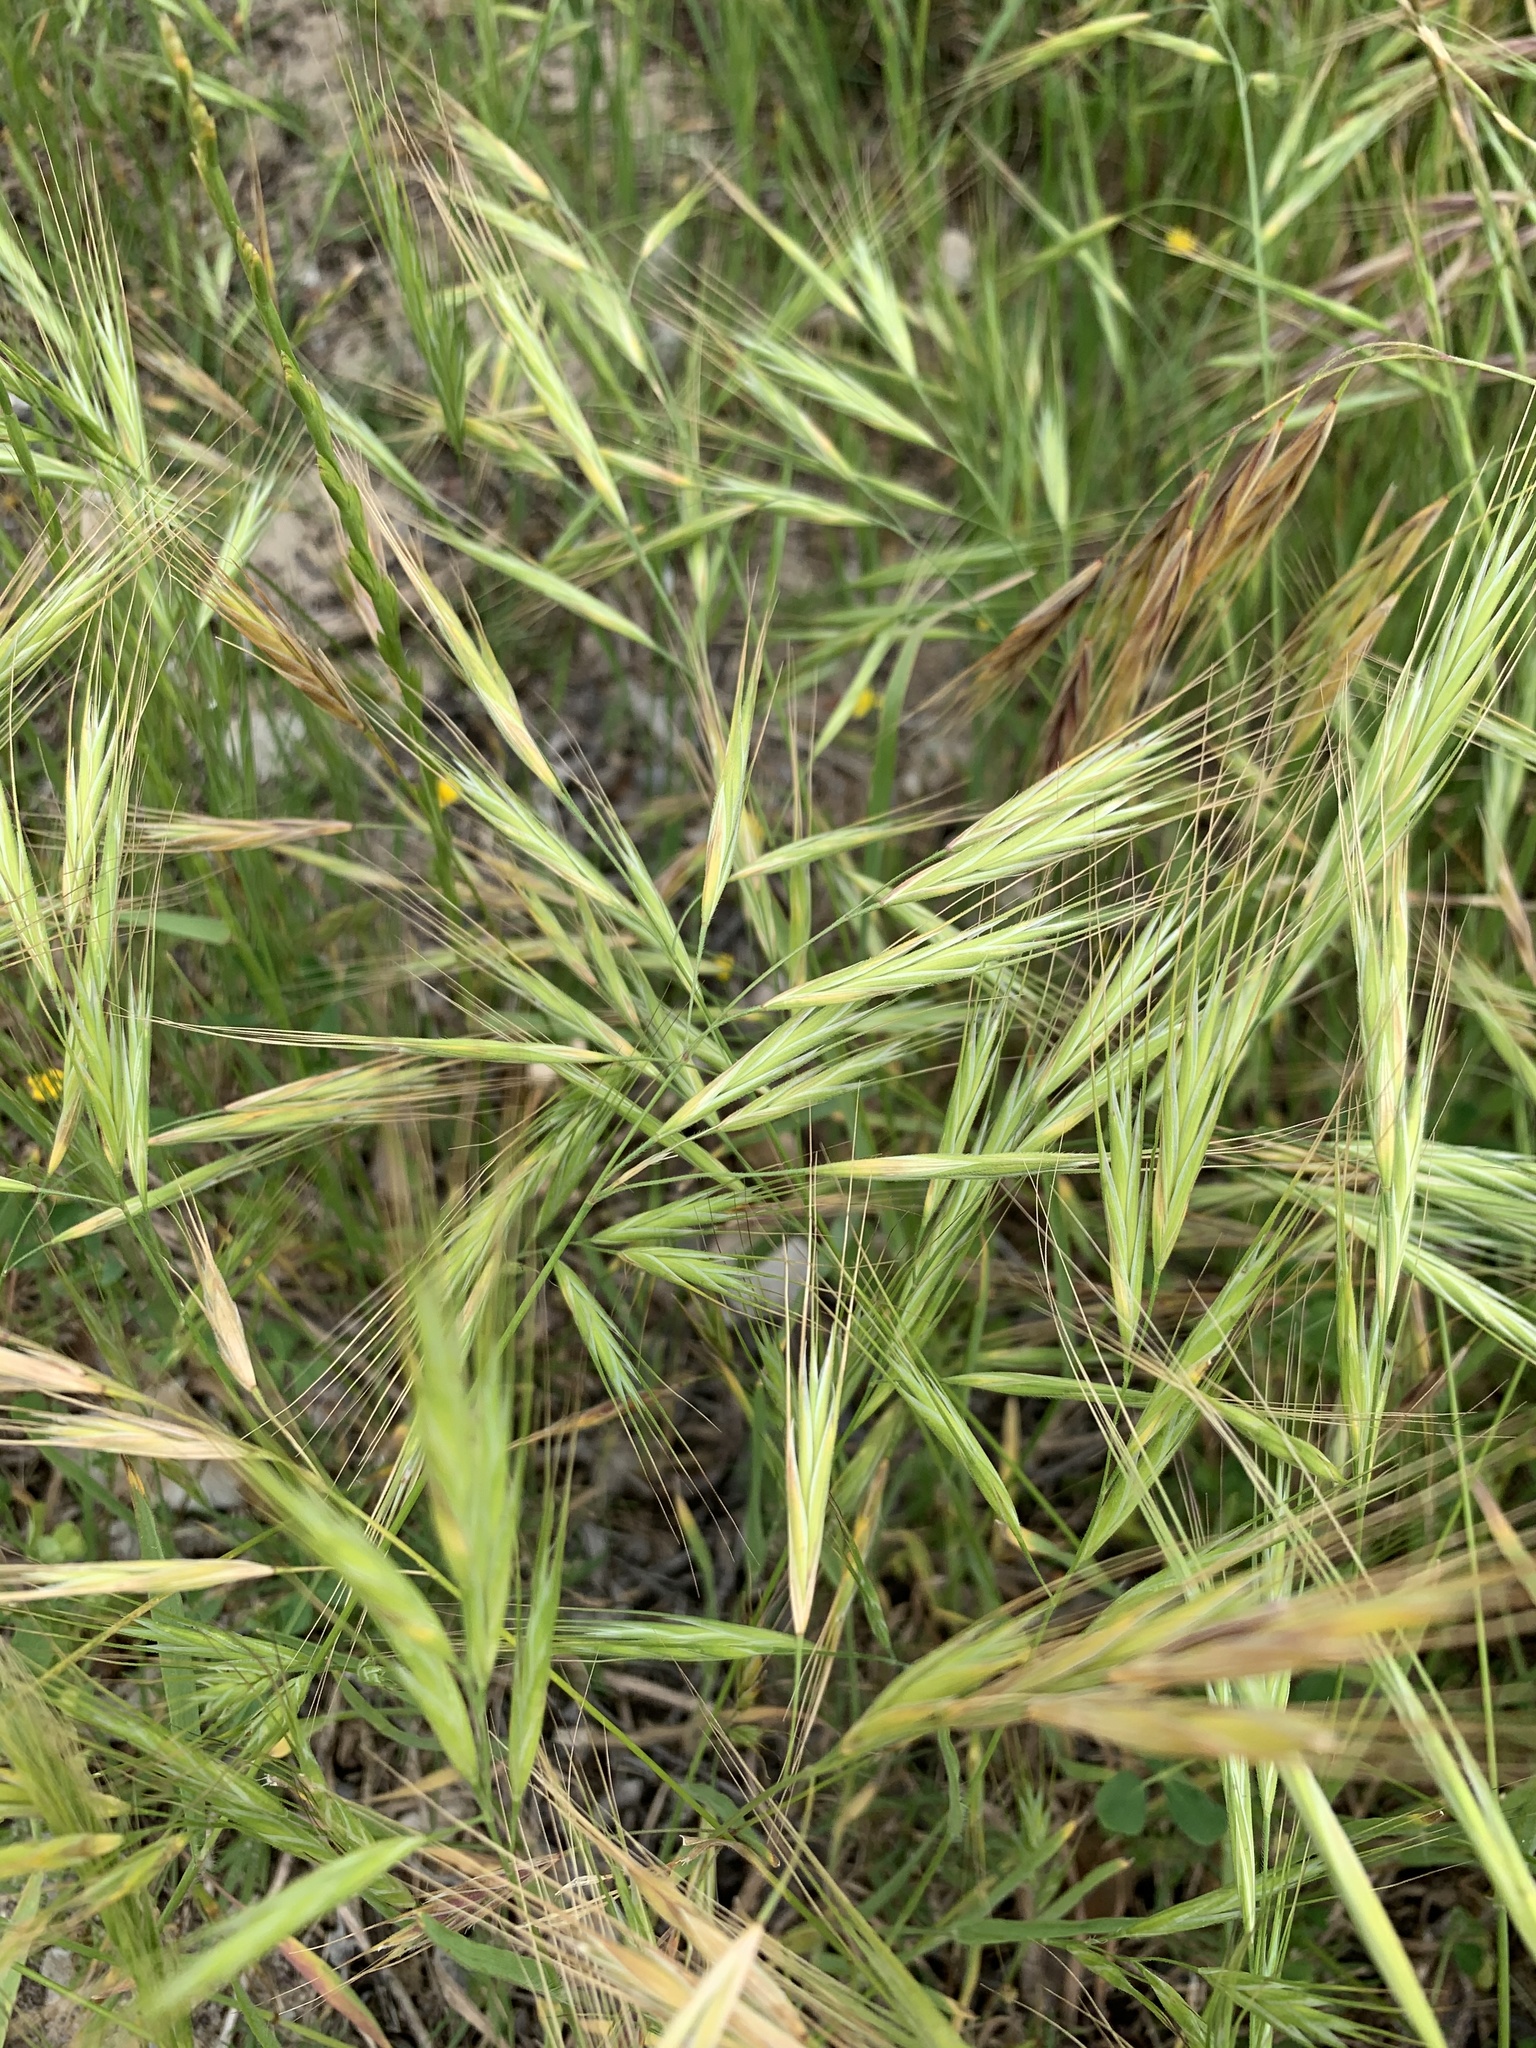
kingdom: Plantae
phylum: Tracheophyta
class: Liliopsida
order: Poales
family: Poaceae
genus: Bromus
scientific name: Bromus diandrus
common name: Ripgut brome
